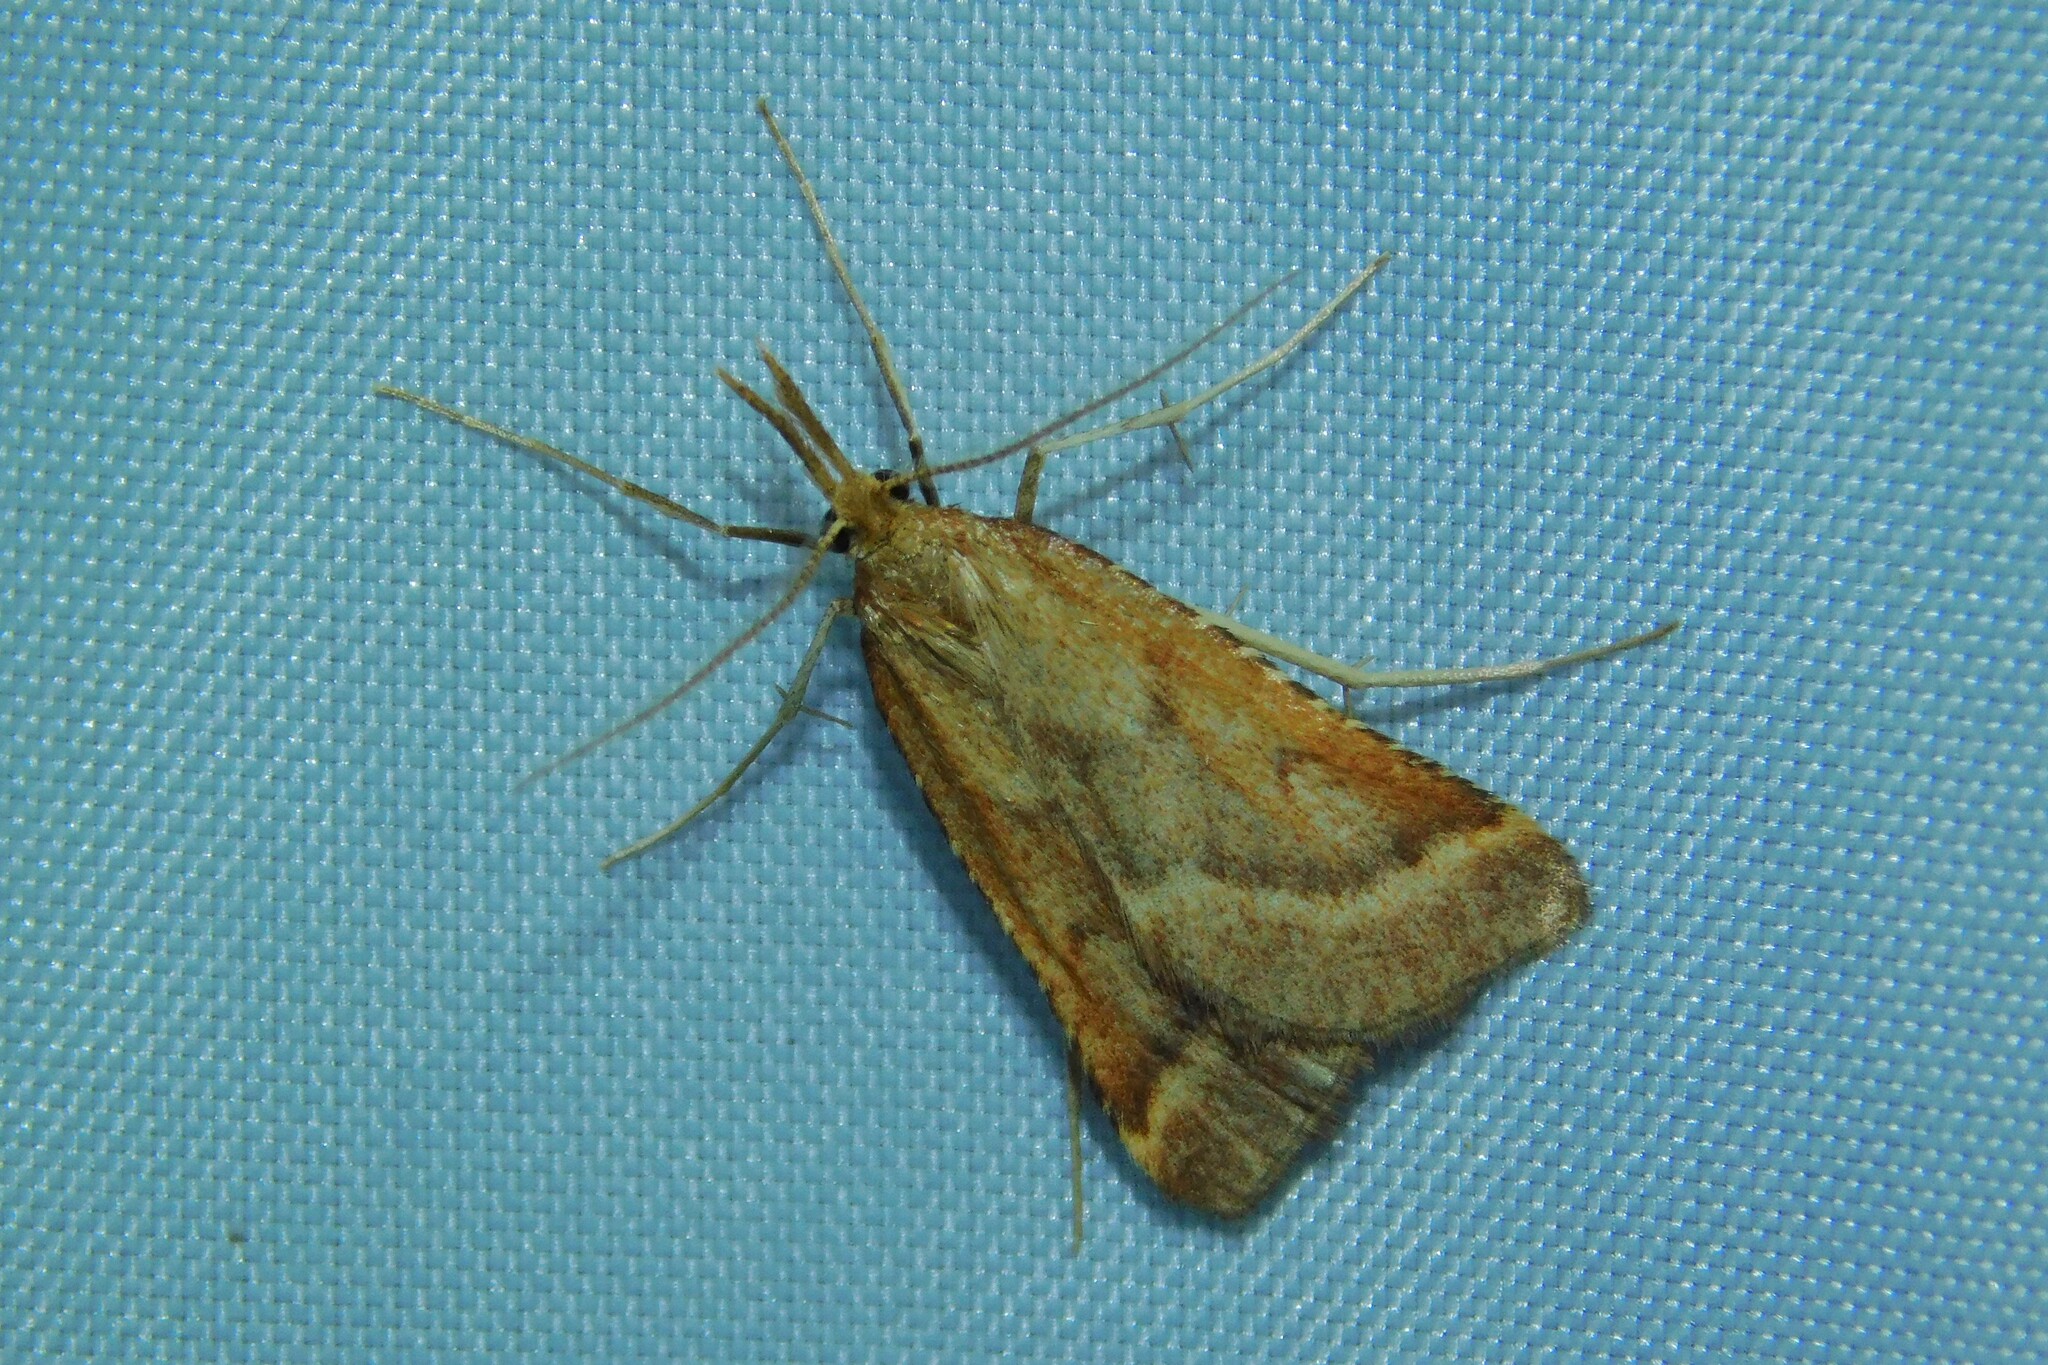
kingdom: Animalia
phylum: Arthropoda
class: Insecta
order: Lepidoptera
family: Pyralidae
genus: Synaphe
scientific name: Synaphe punctalis
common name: Long-legged tabby
